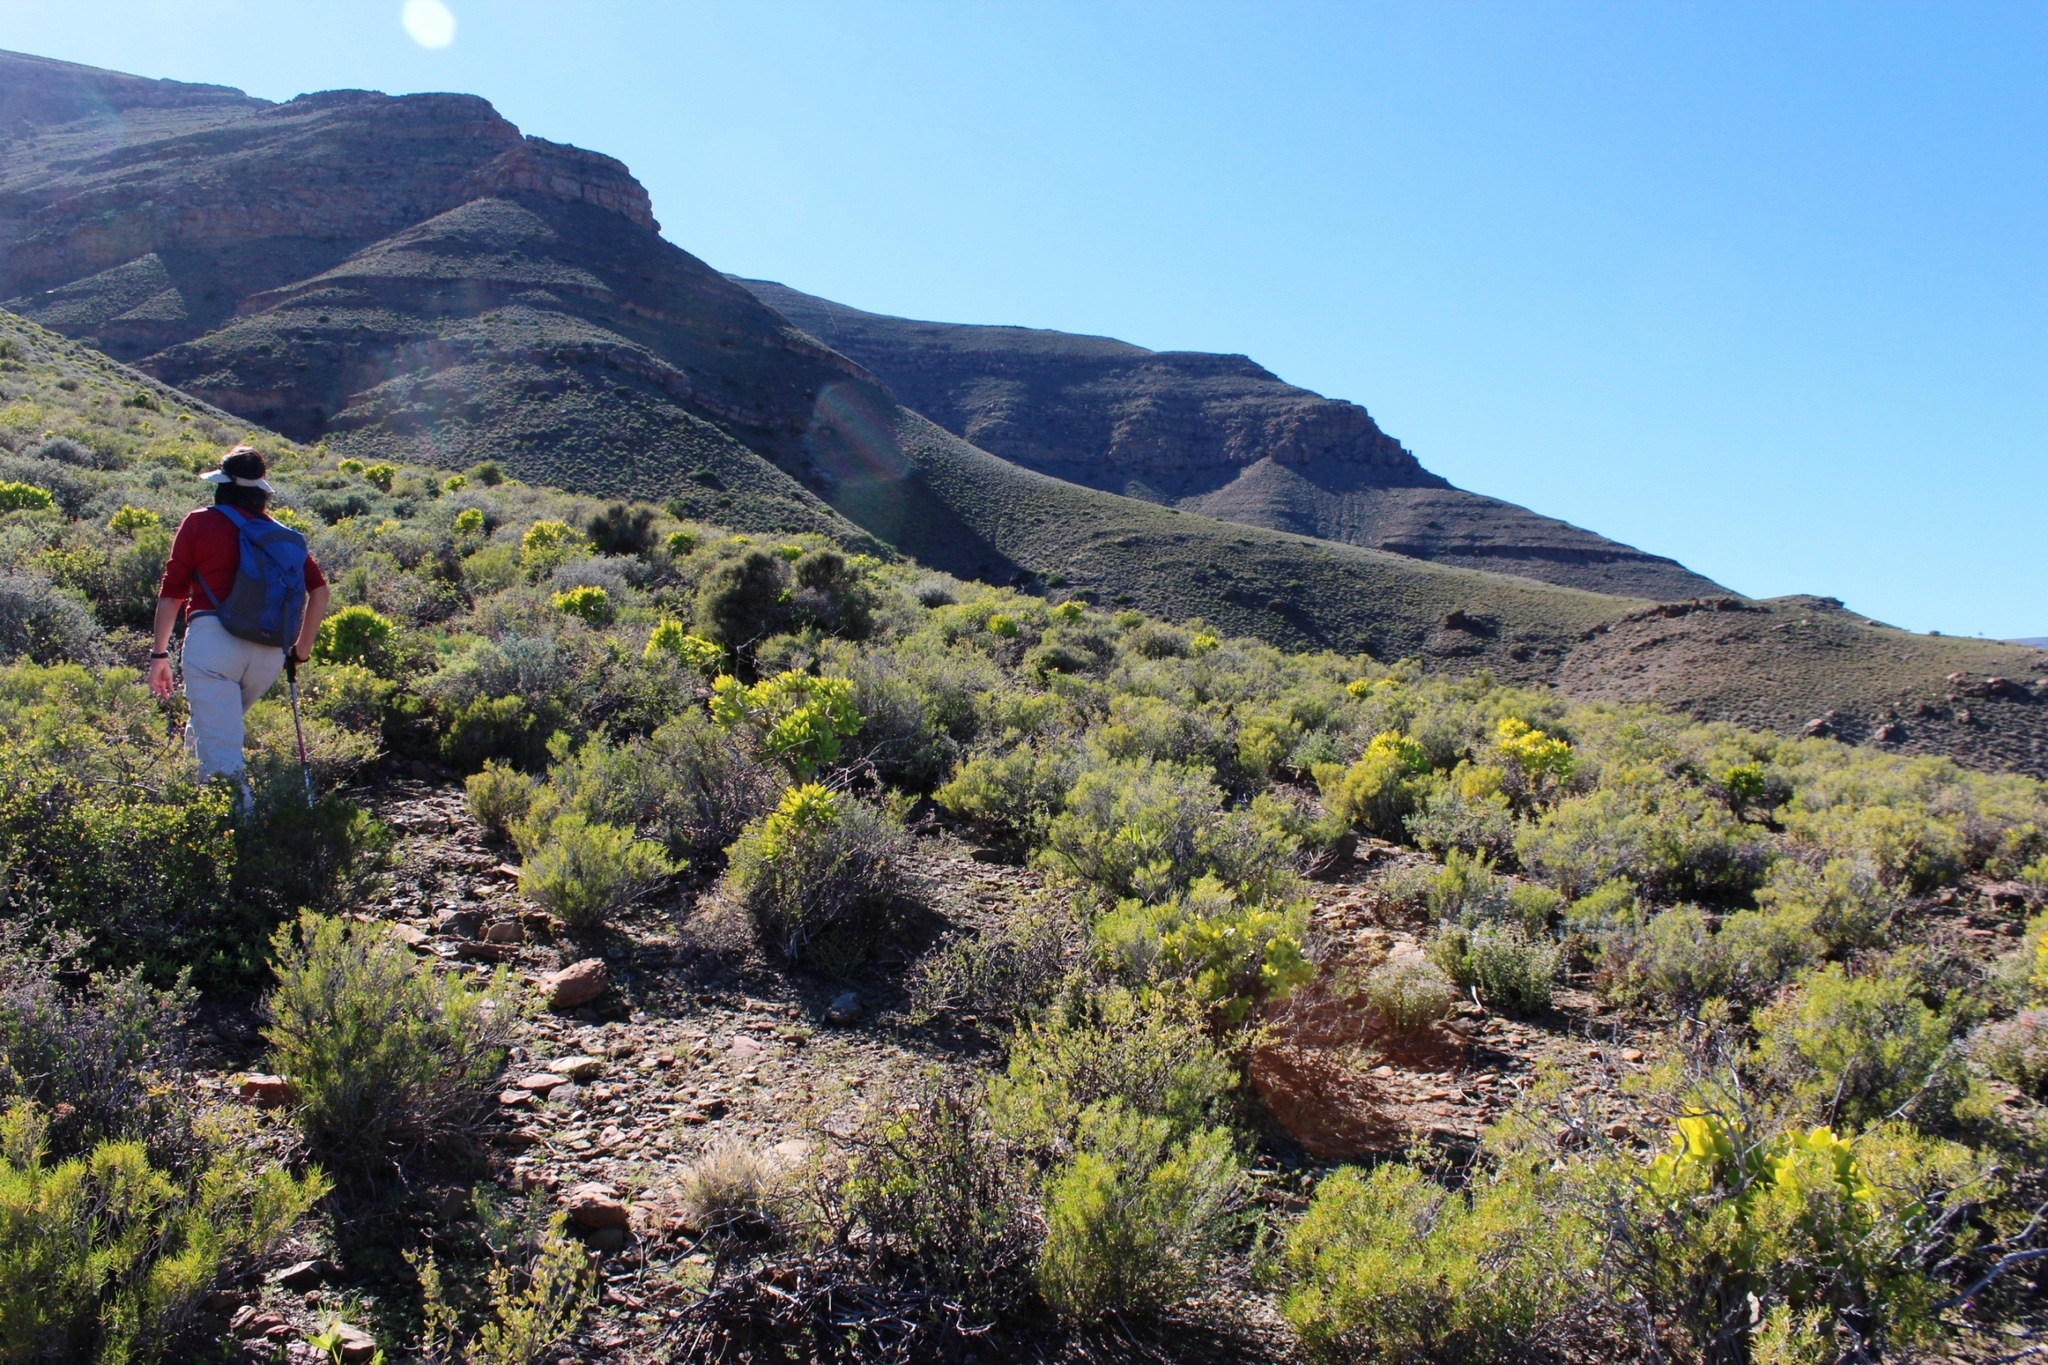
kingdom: Plantae
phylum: Tracheophyta
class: Magnoliopsida
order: Saxifragales
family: Crassulaceae
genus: Tylecodon
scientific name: Tylecodon paniculatus
